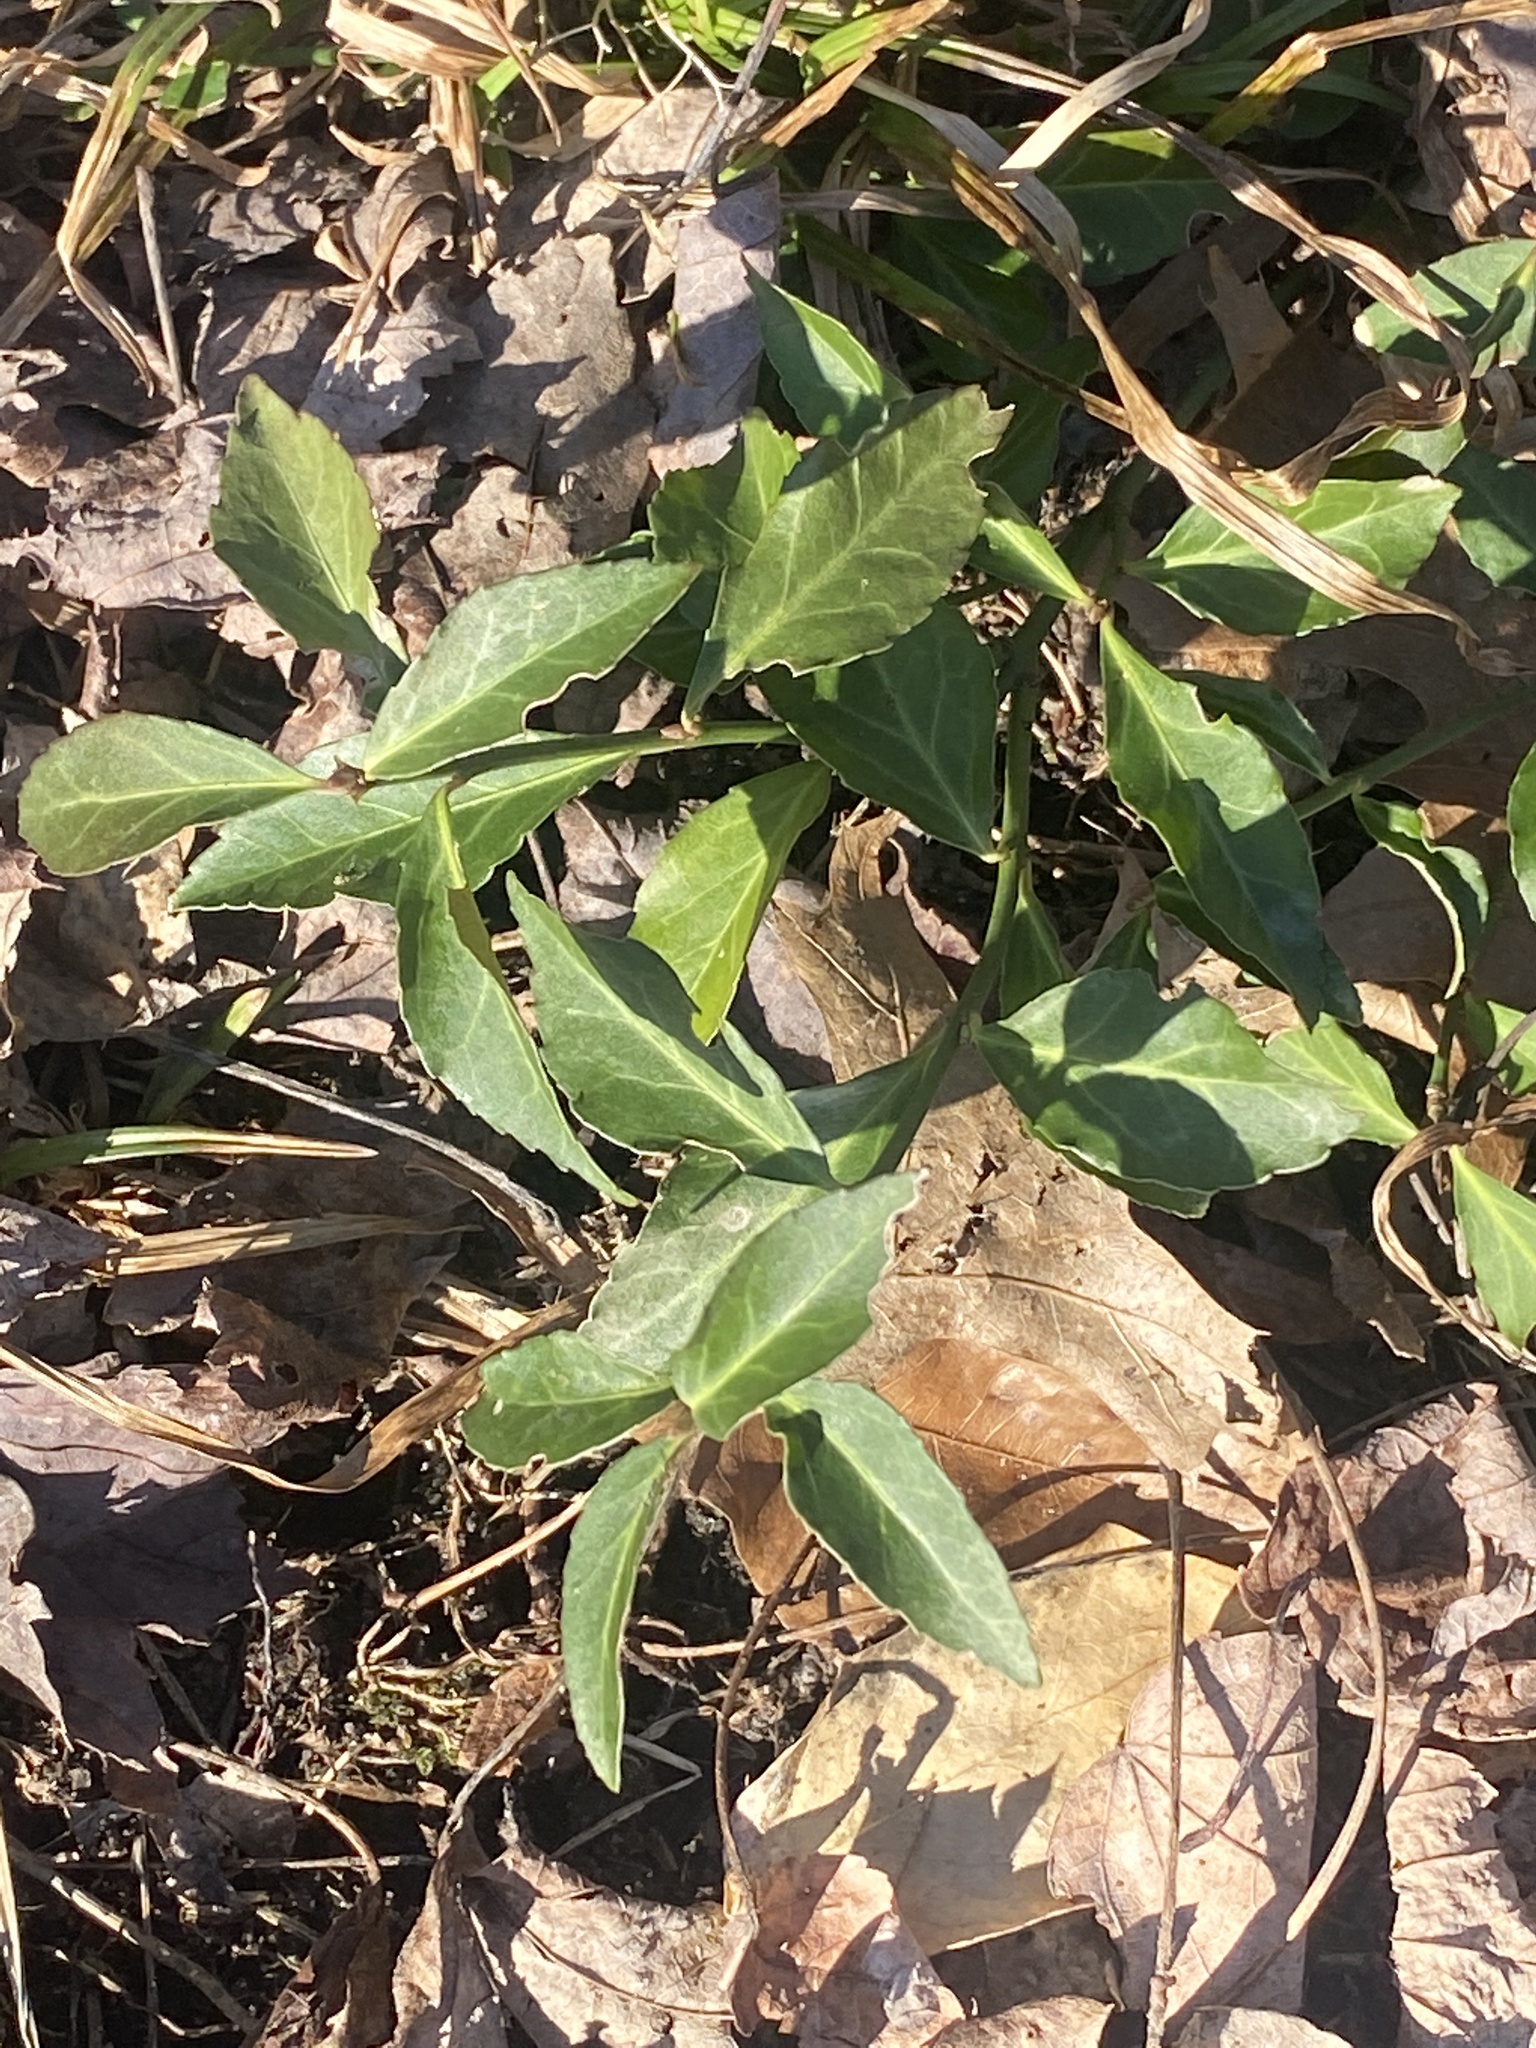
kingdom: Plantae
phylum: Tracheophyta
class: Magnoliopsida
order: Celastrales
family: Celastraceae
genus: Euonymus
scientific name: Euonymus fortunei
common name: Climbing euonymus
